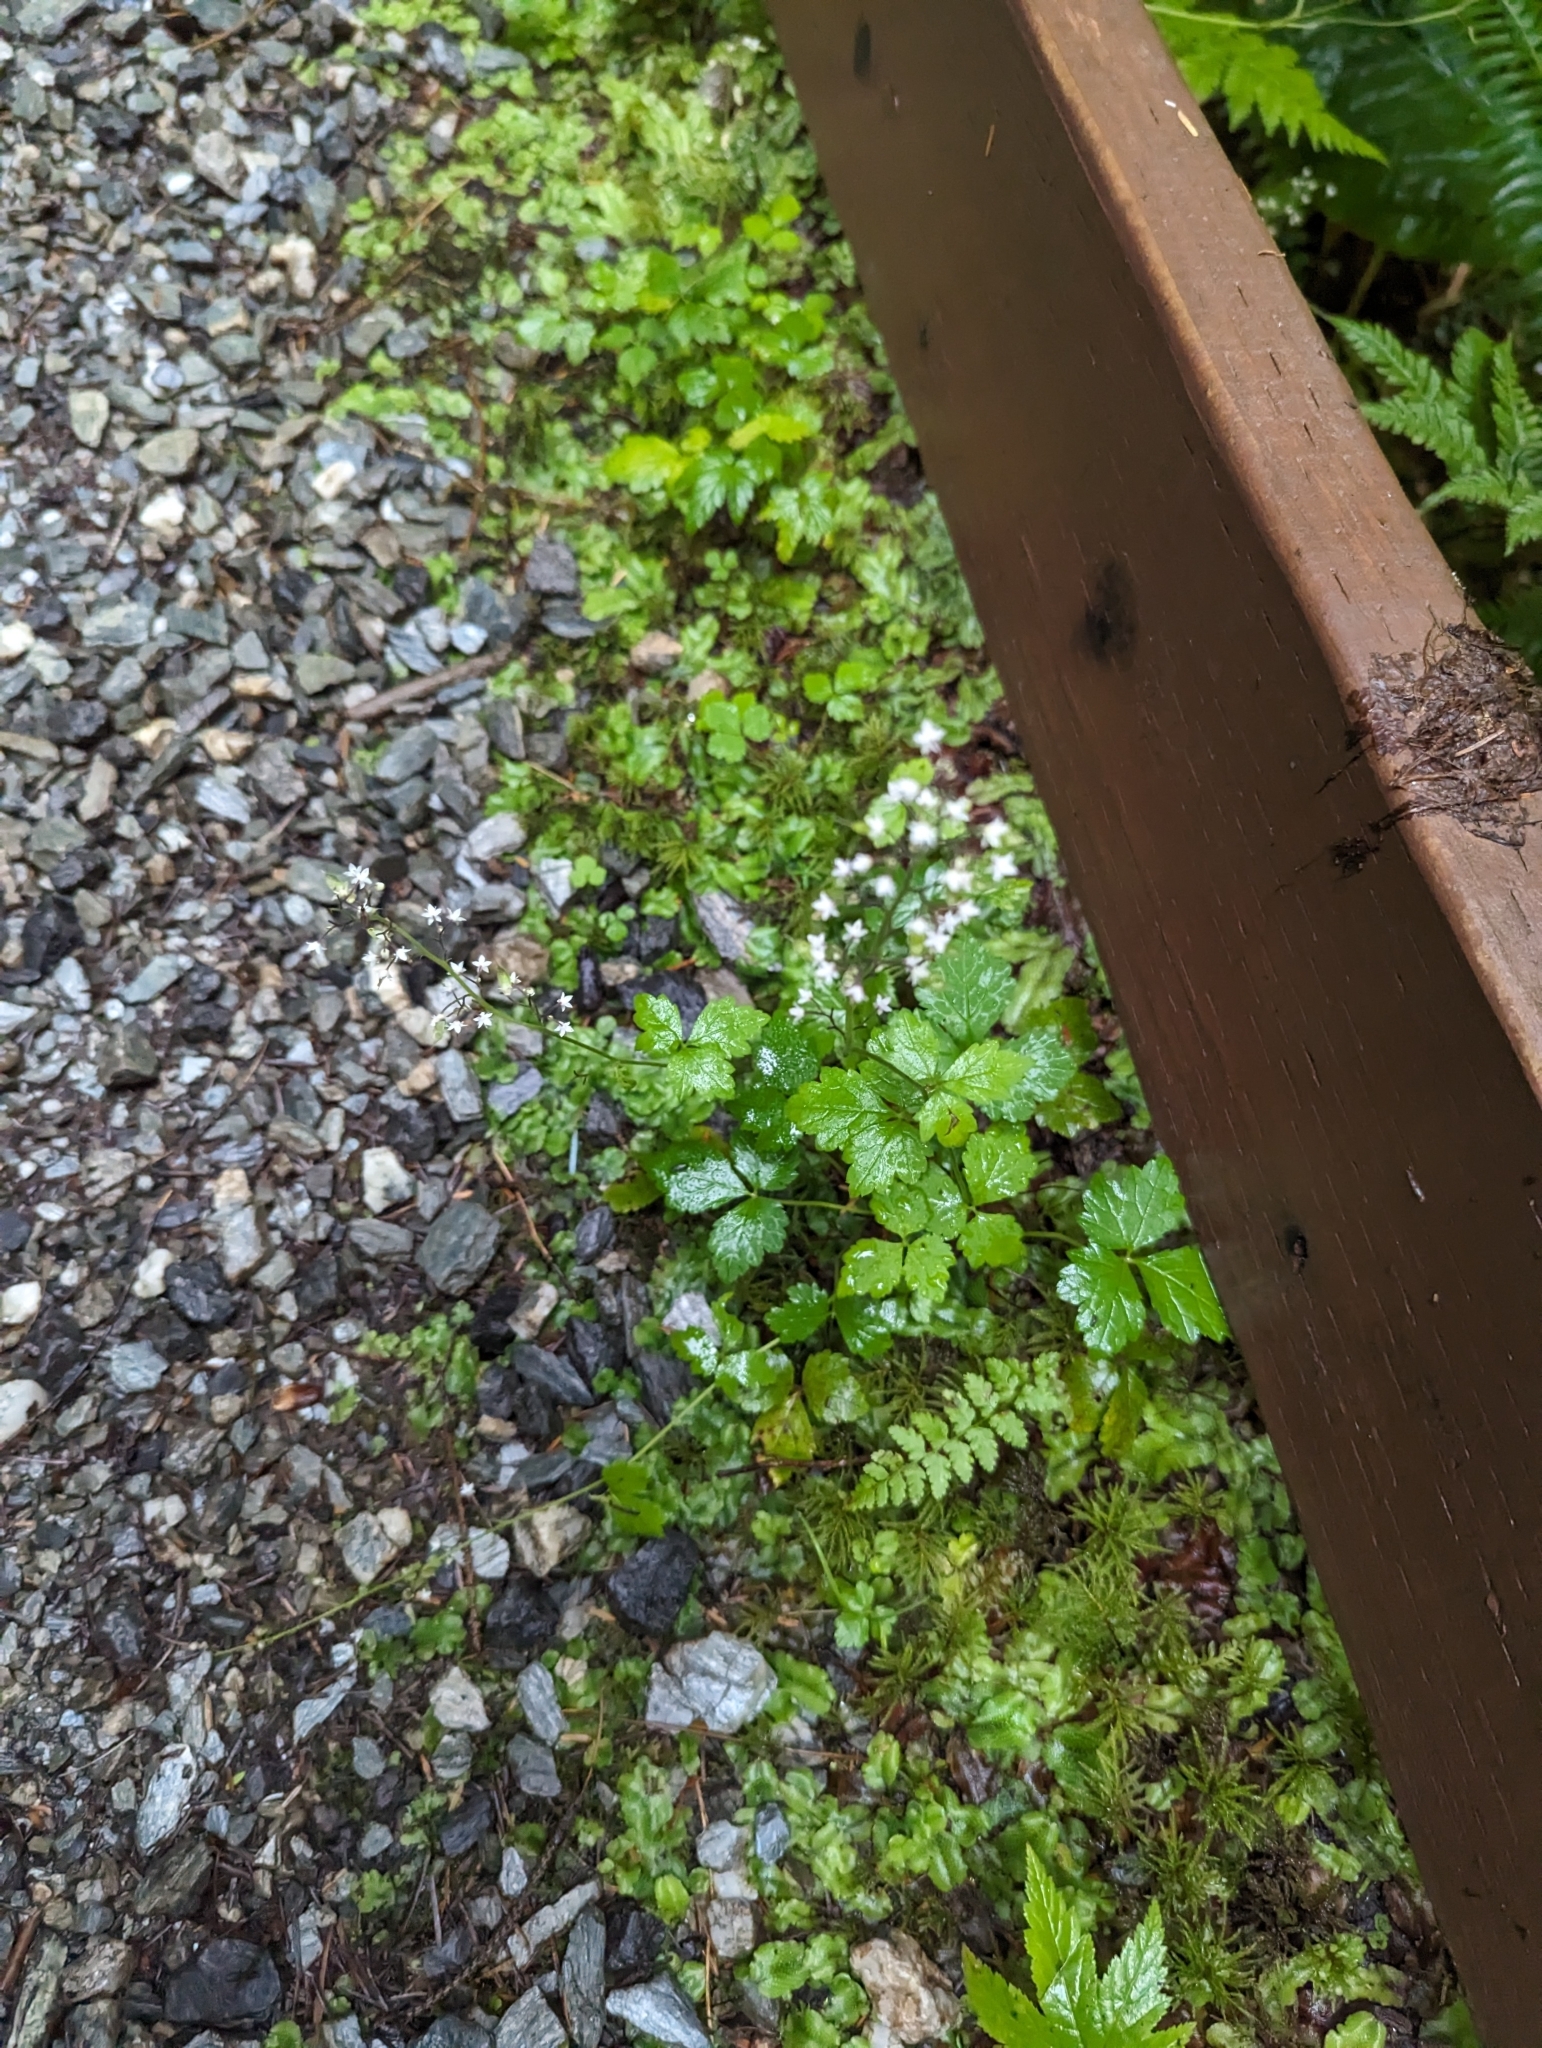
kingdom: Plantae
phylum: Tracheophyta
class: Magnoliopsida
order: Saxifragales
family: Saxifragaceae
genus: Tiarella
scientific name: Tiarella trifoliata
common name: Sugar-scoop
